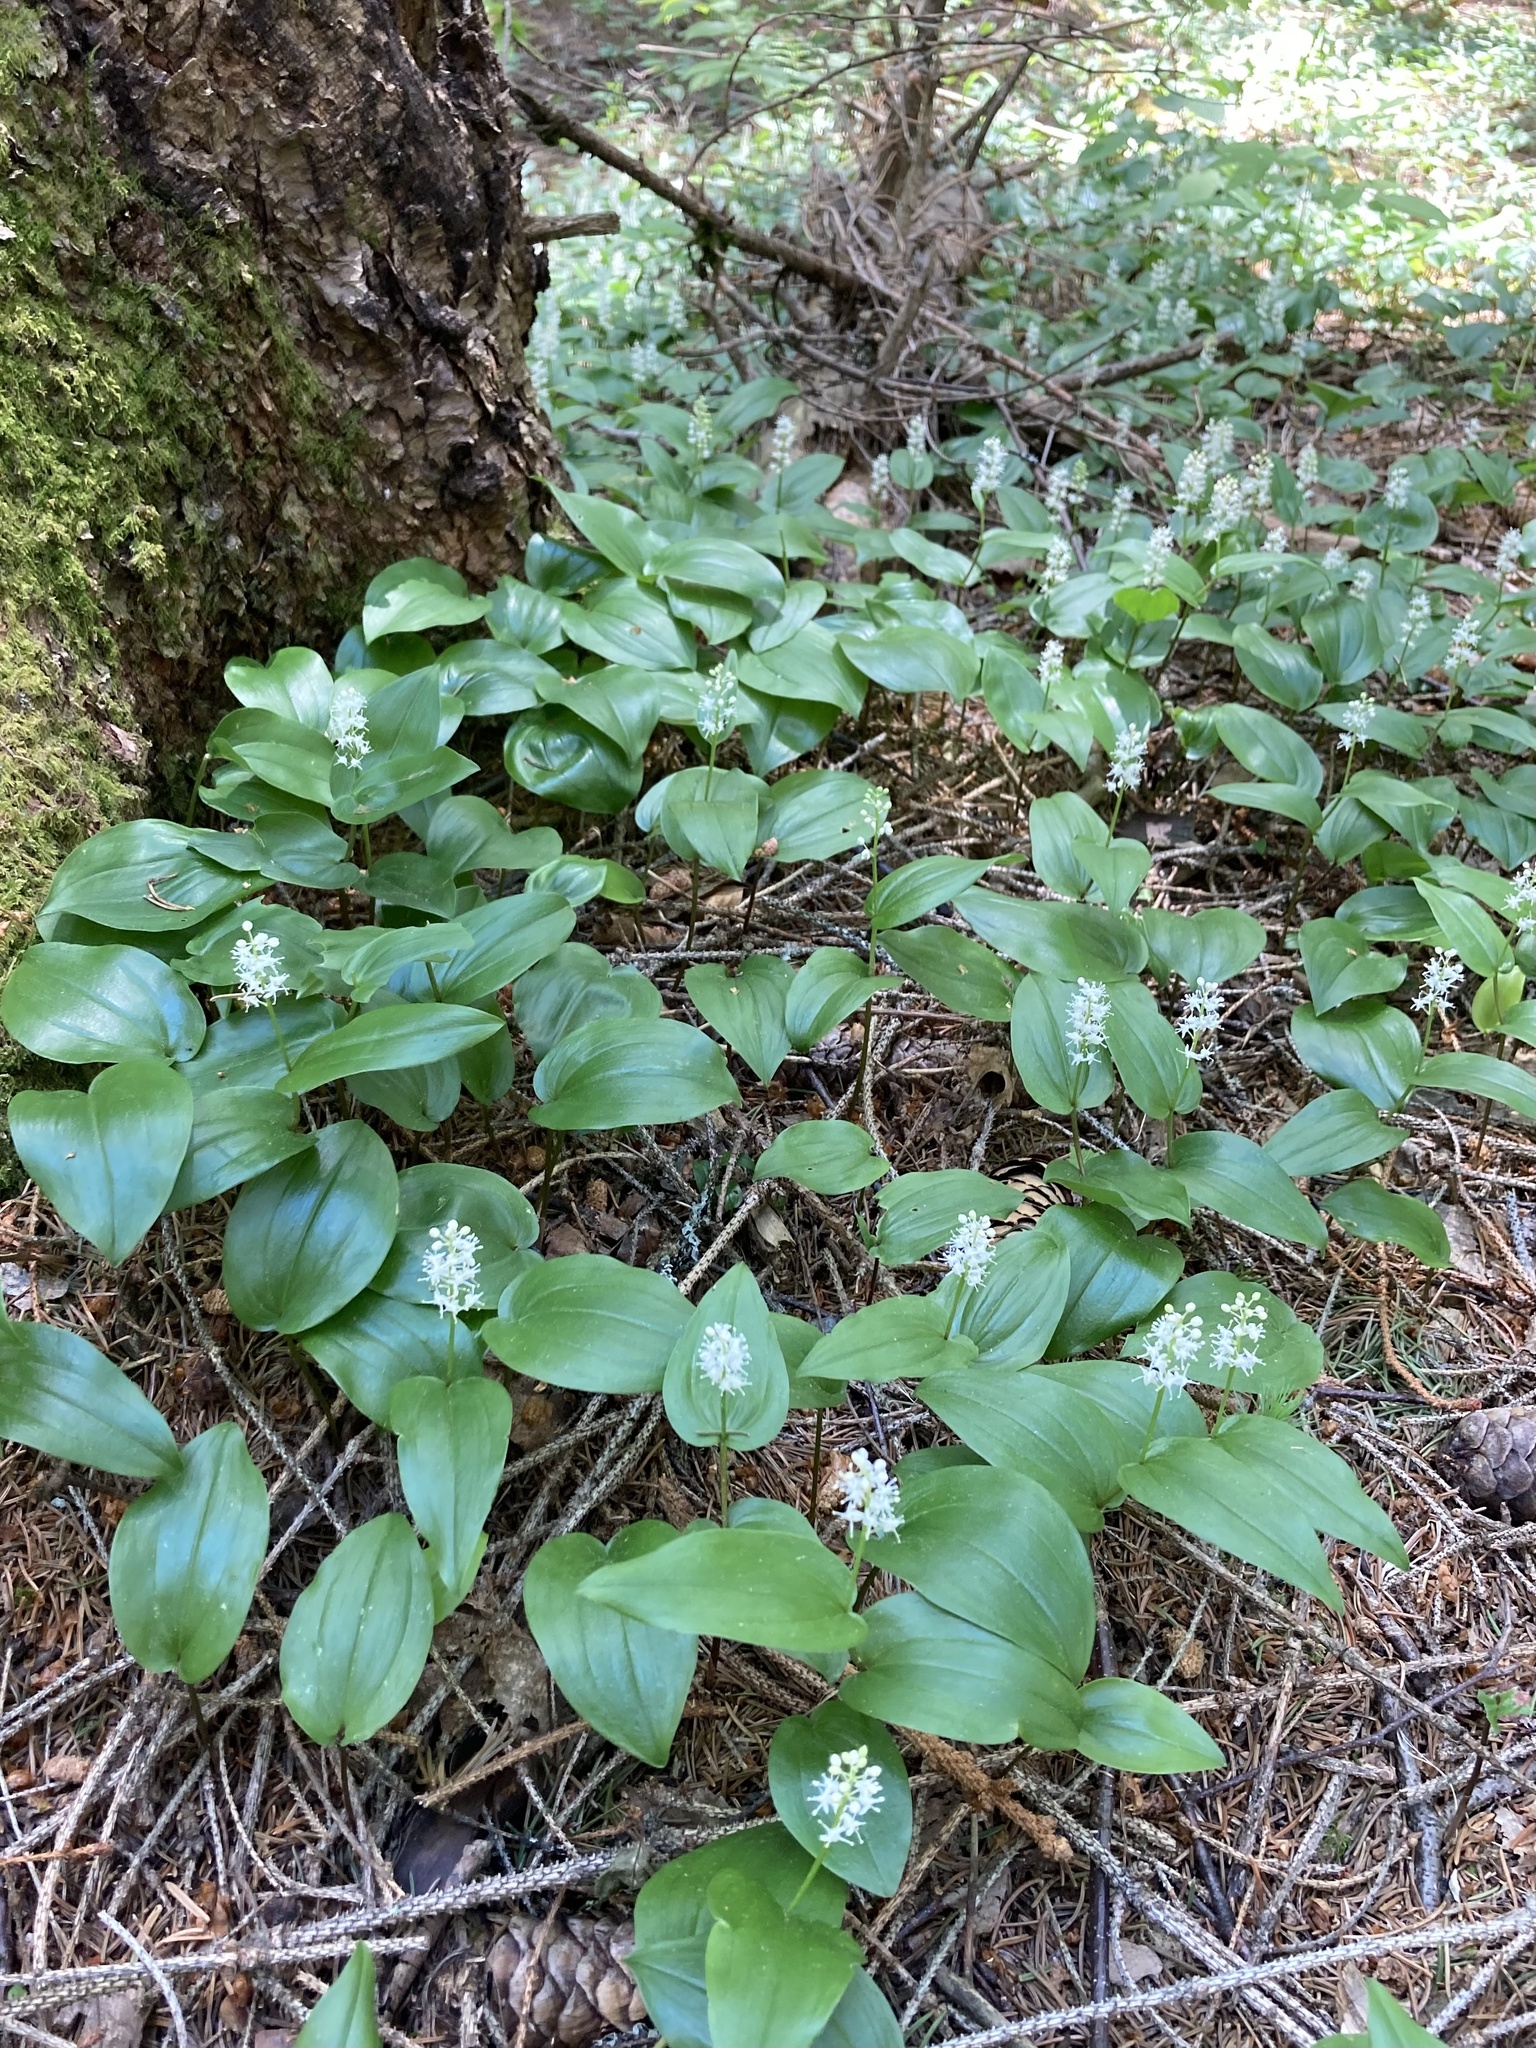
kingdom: Plantae
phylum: Tracheophyta
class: Liliopsida
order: Asparagales
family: Asparagaceae
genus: Maianthemum
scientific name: Maianthemum canadense
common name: False lily-of-the-valley
